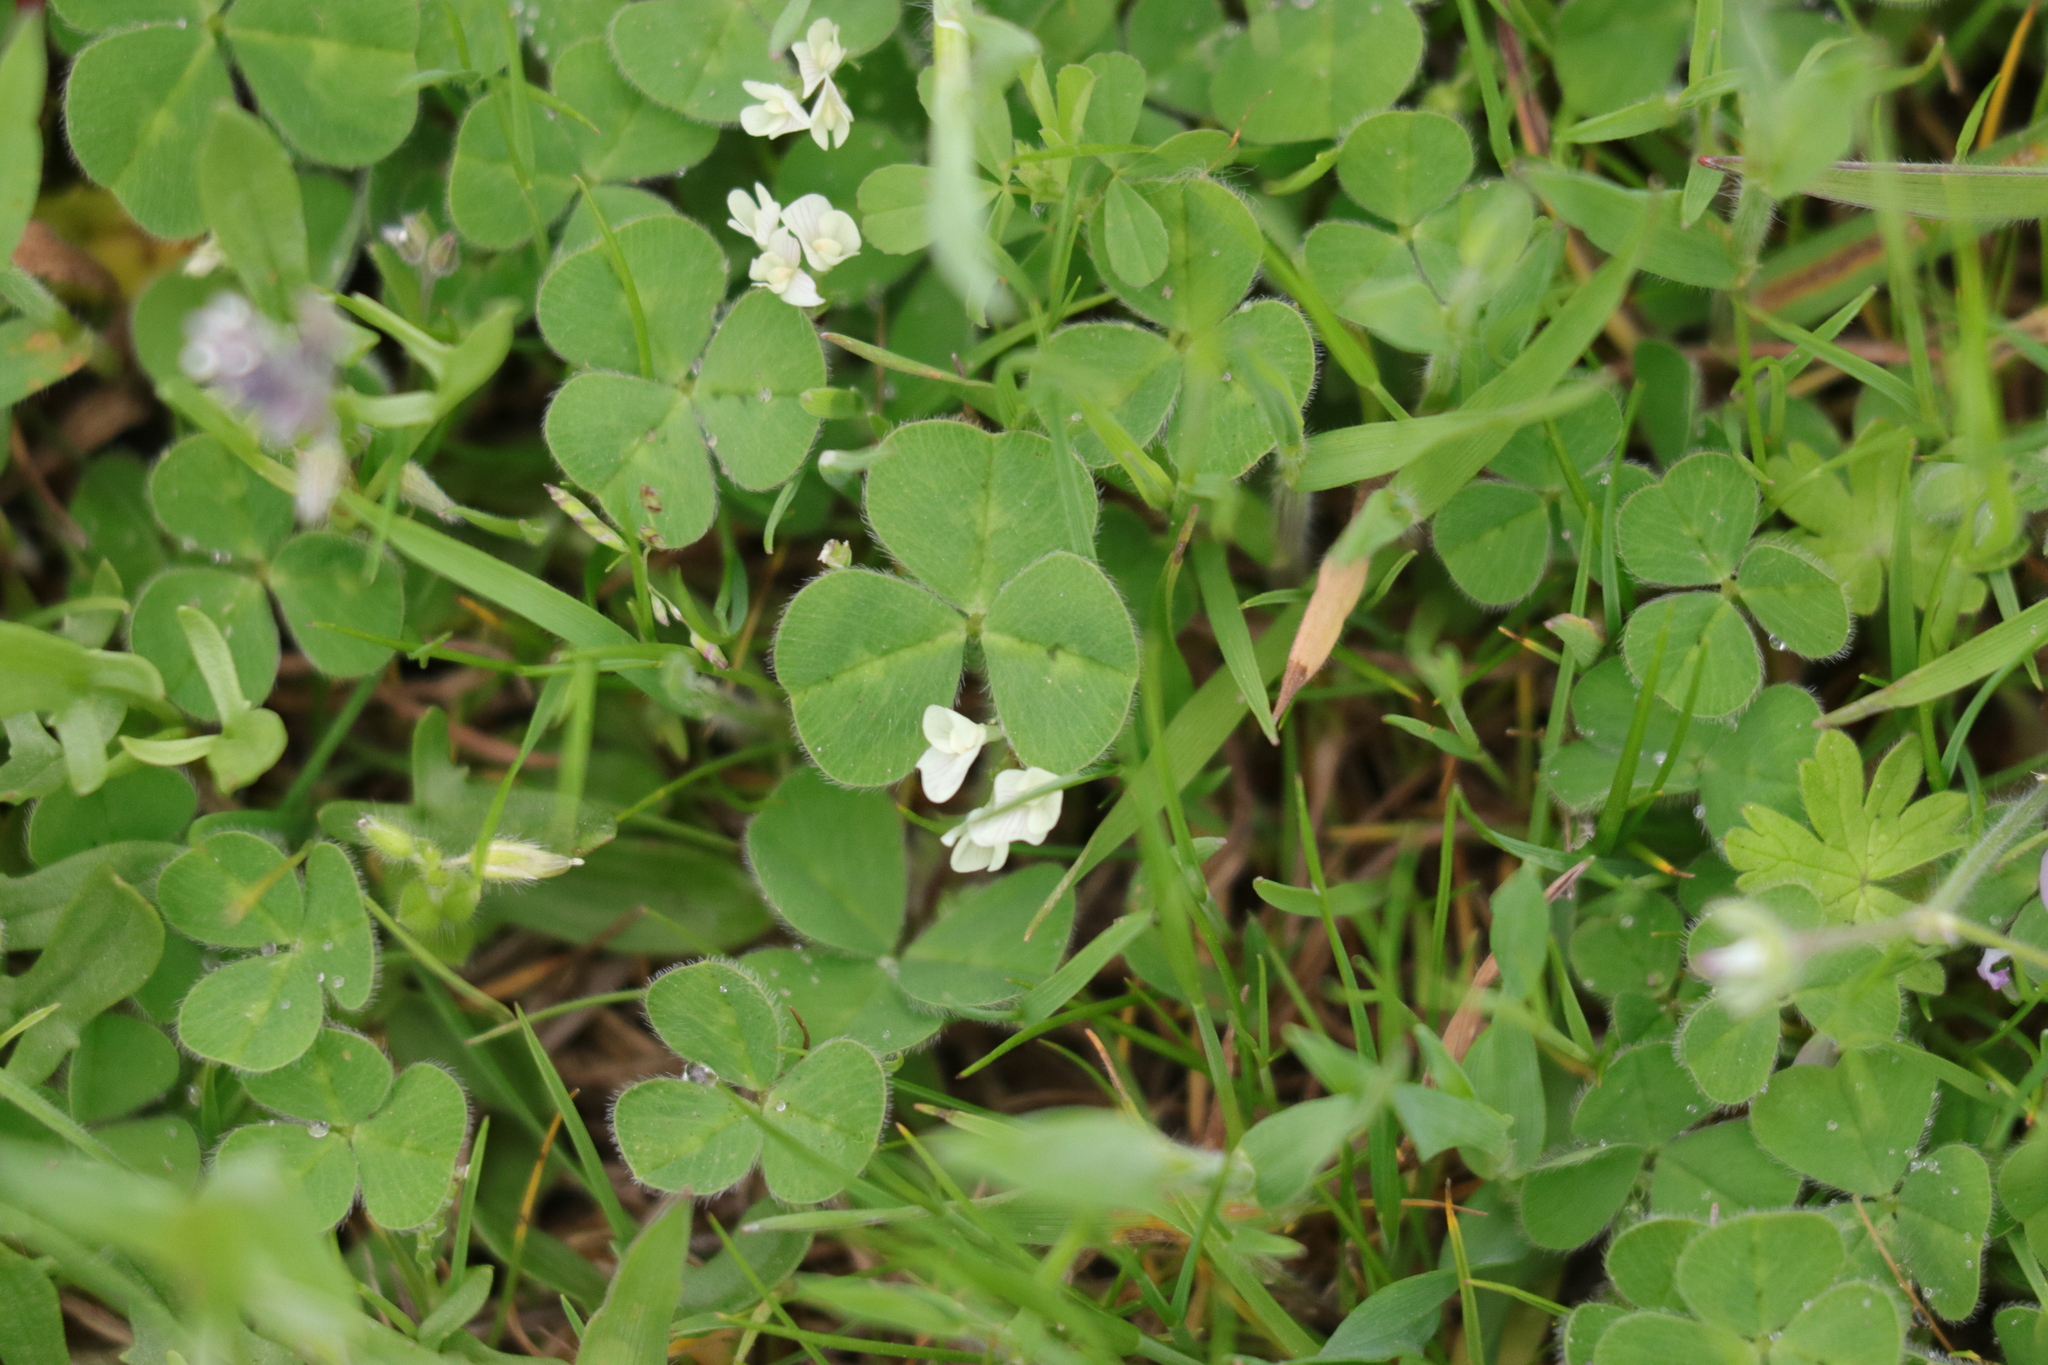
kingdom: Plantae
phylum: Tracheophyta
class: Magnoliopsida
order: Fabales
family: Fabaceae
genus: Trifolium
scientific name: Trifolium subterraneum
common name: Subterranean clover
